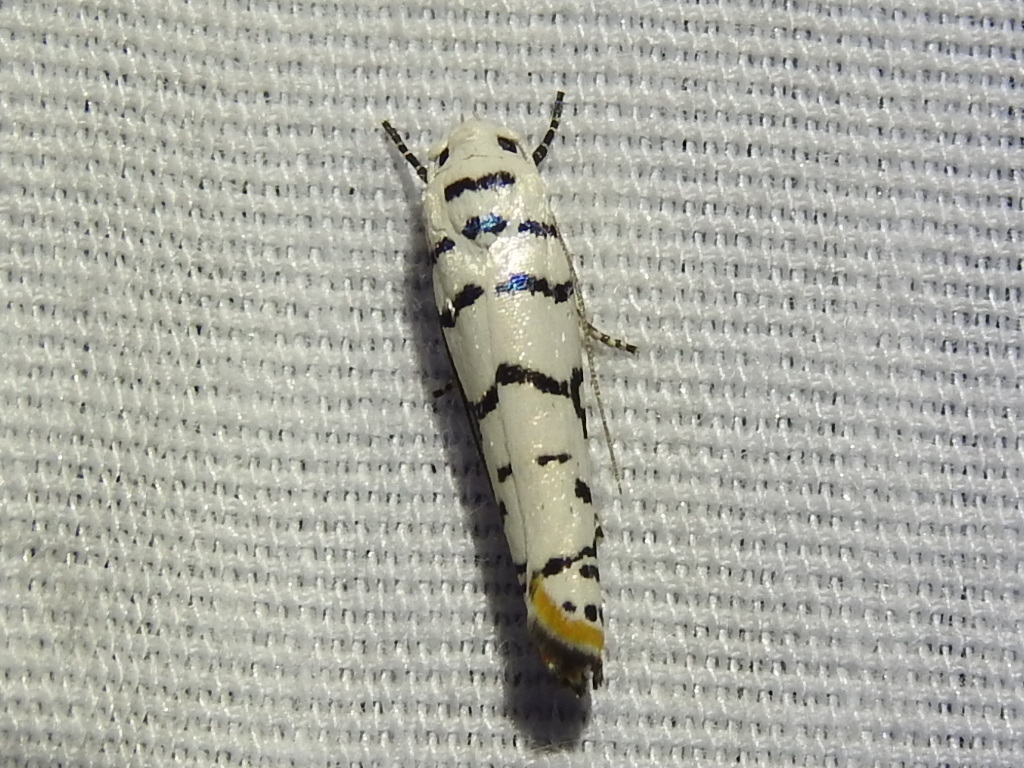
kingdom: Animalia
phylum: Arthropoda
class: Insecta
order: Lepidoptera
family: Ethmiidae
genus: Ethmia
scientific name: Ethmia delliella
